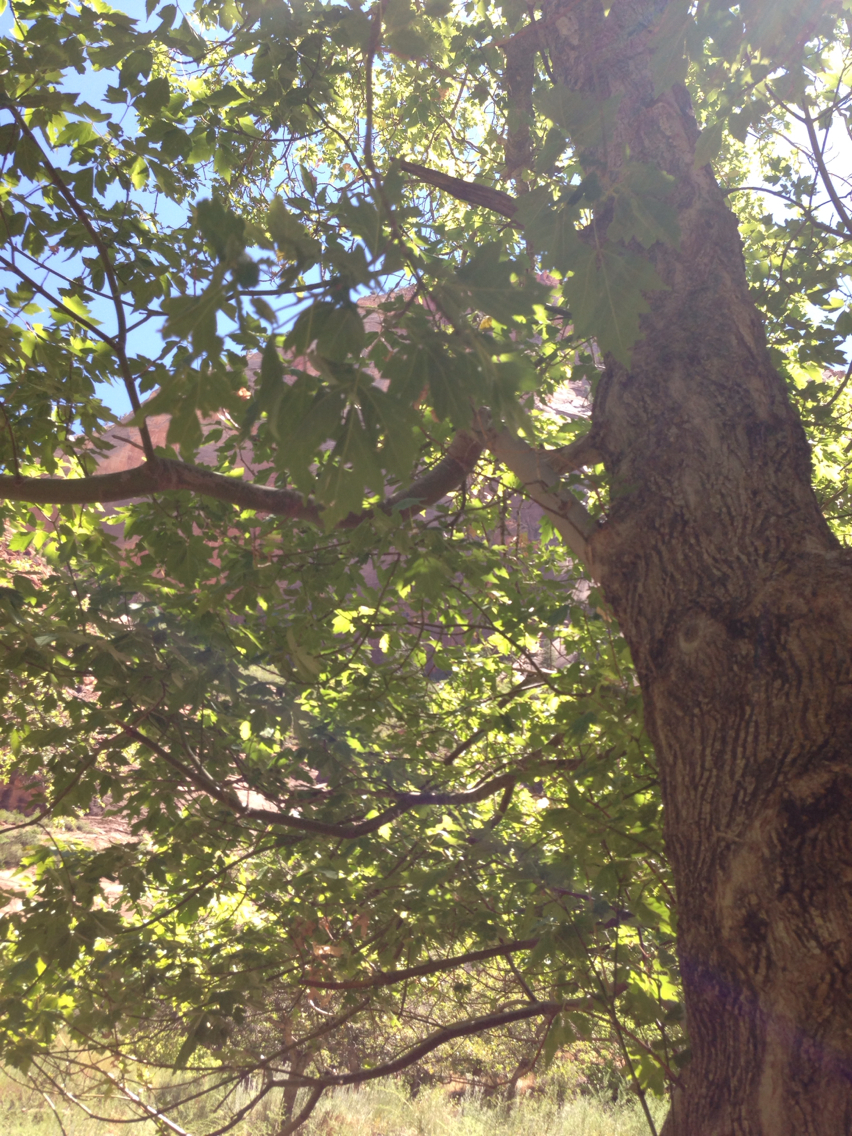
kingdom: Plantae
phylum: Tracheophyta
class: Magnoliopsida
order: Sapindales
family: Sapindaceae
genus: Acer
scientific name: Acer negundo
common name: Ashleaf maple
